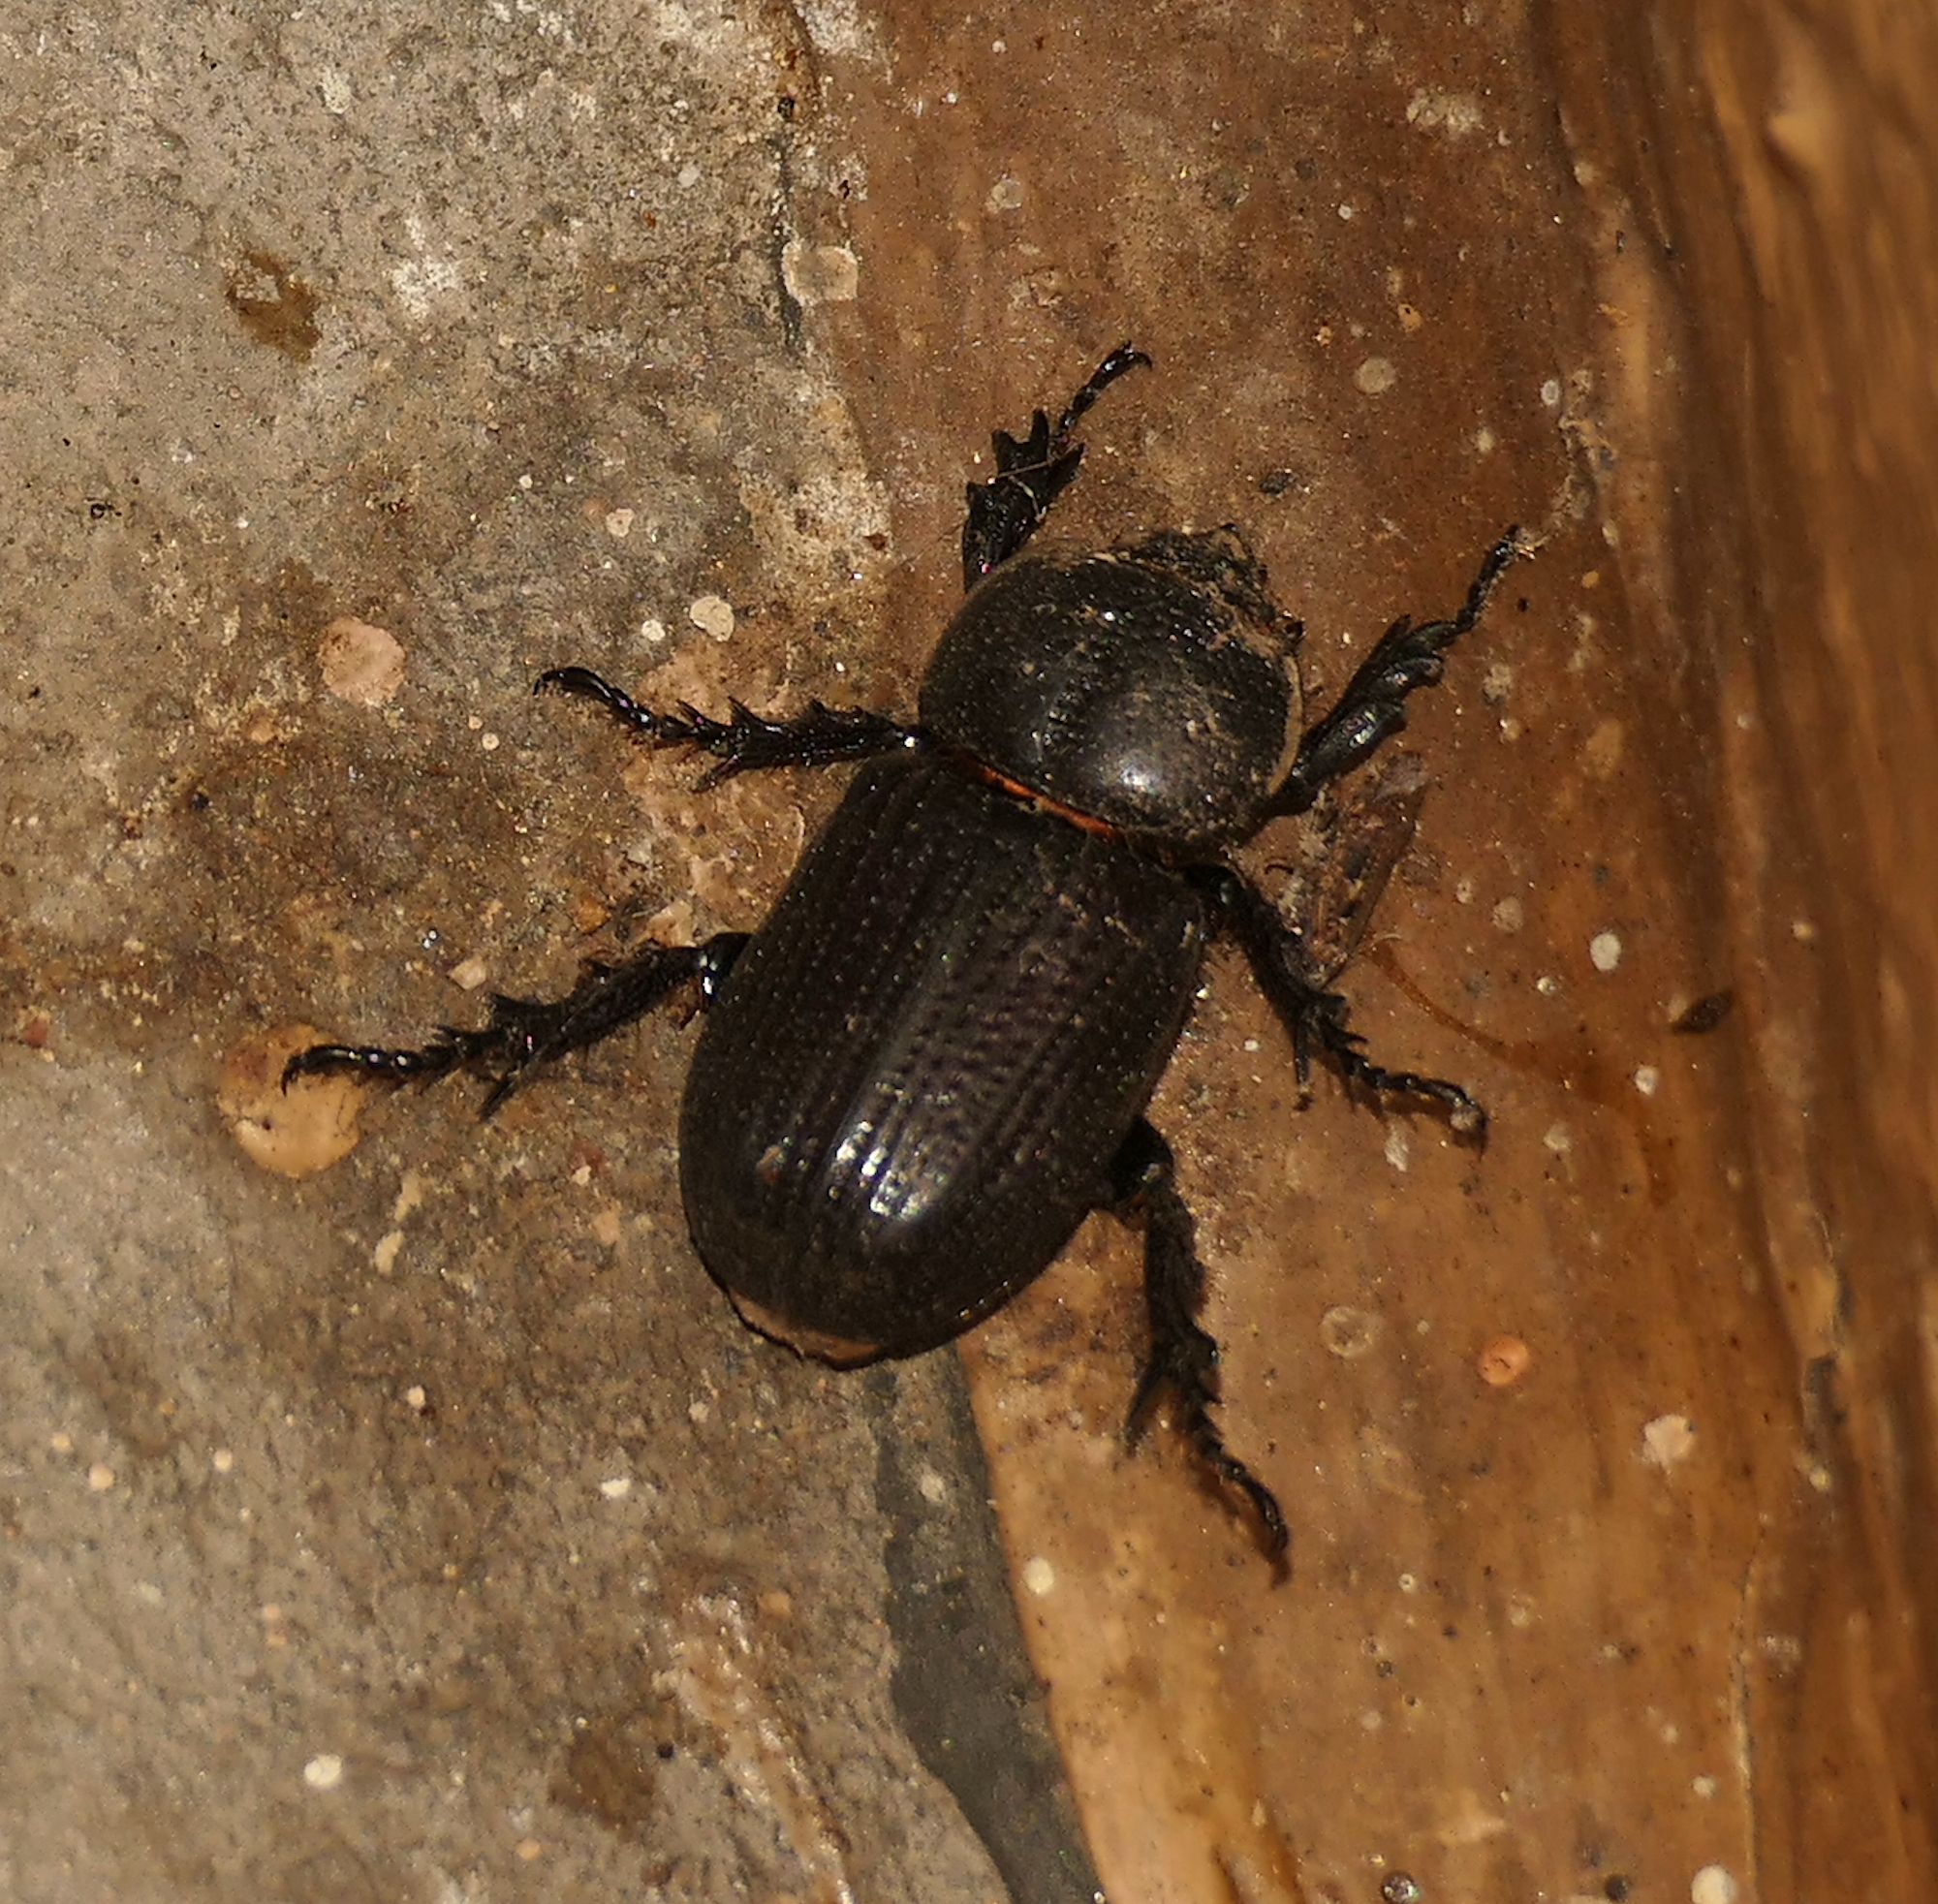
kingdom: Animalia
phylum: Arthropoda
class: Insecta
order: Coleoptera
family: Scarabaeidae
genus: Hemiphileurus
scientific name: Hemiphileurus illatus
